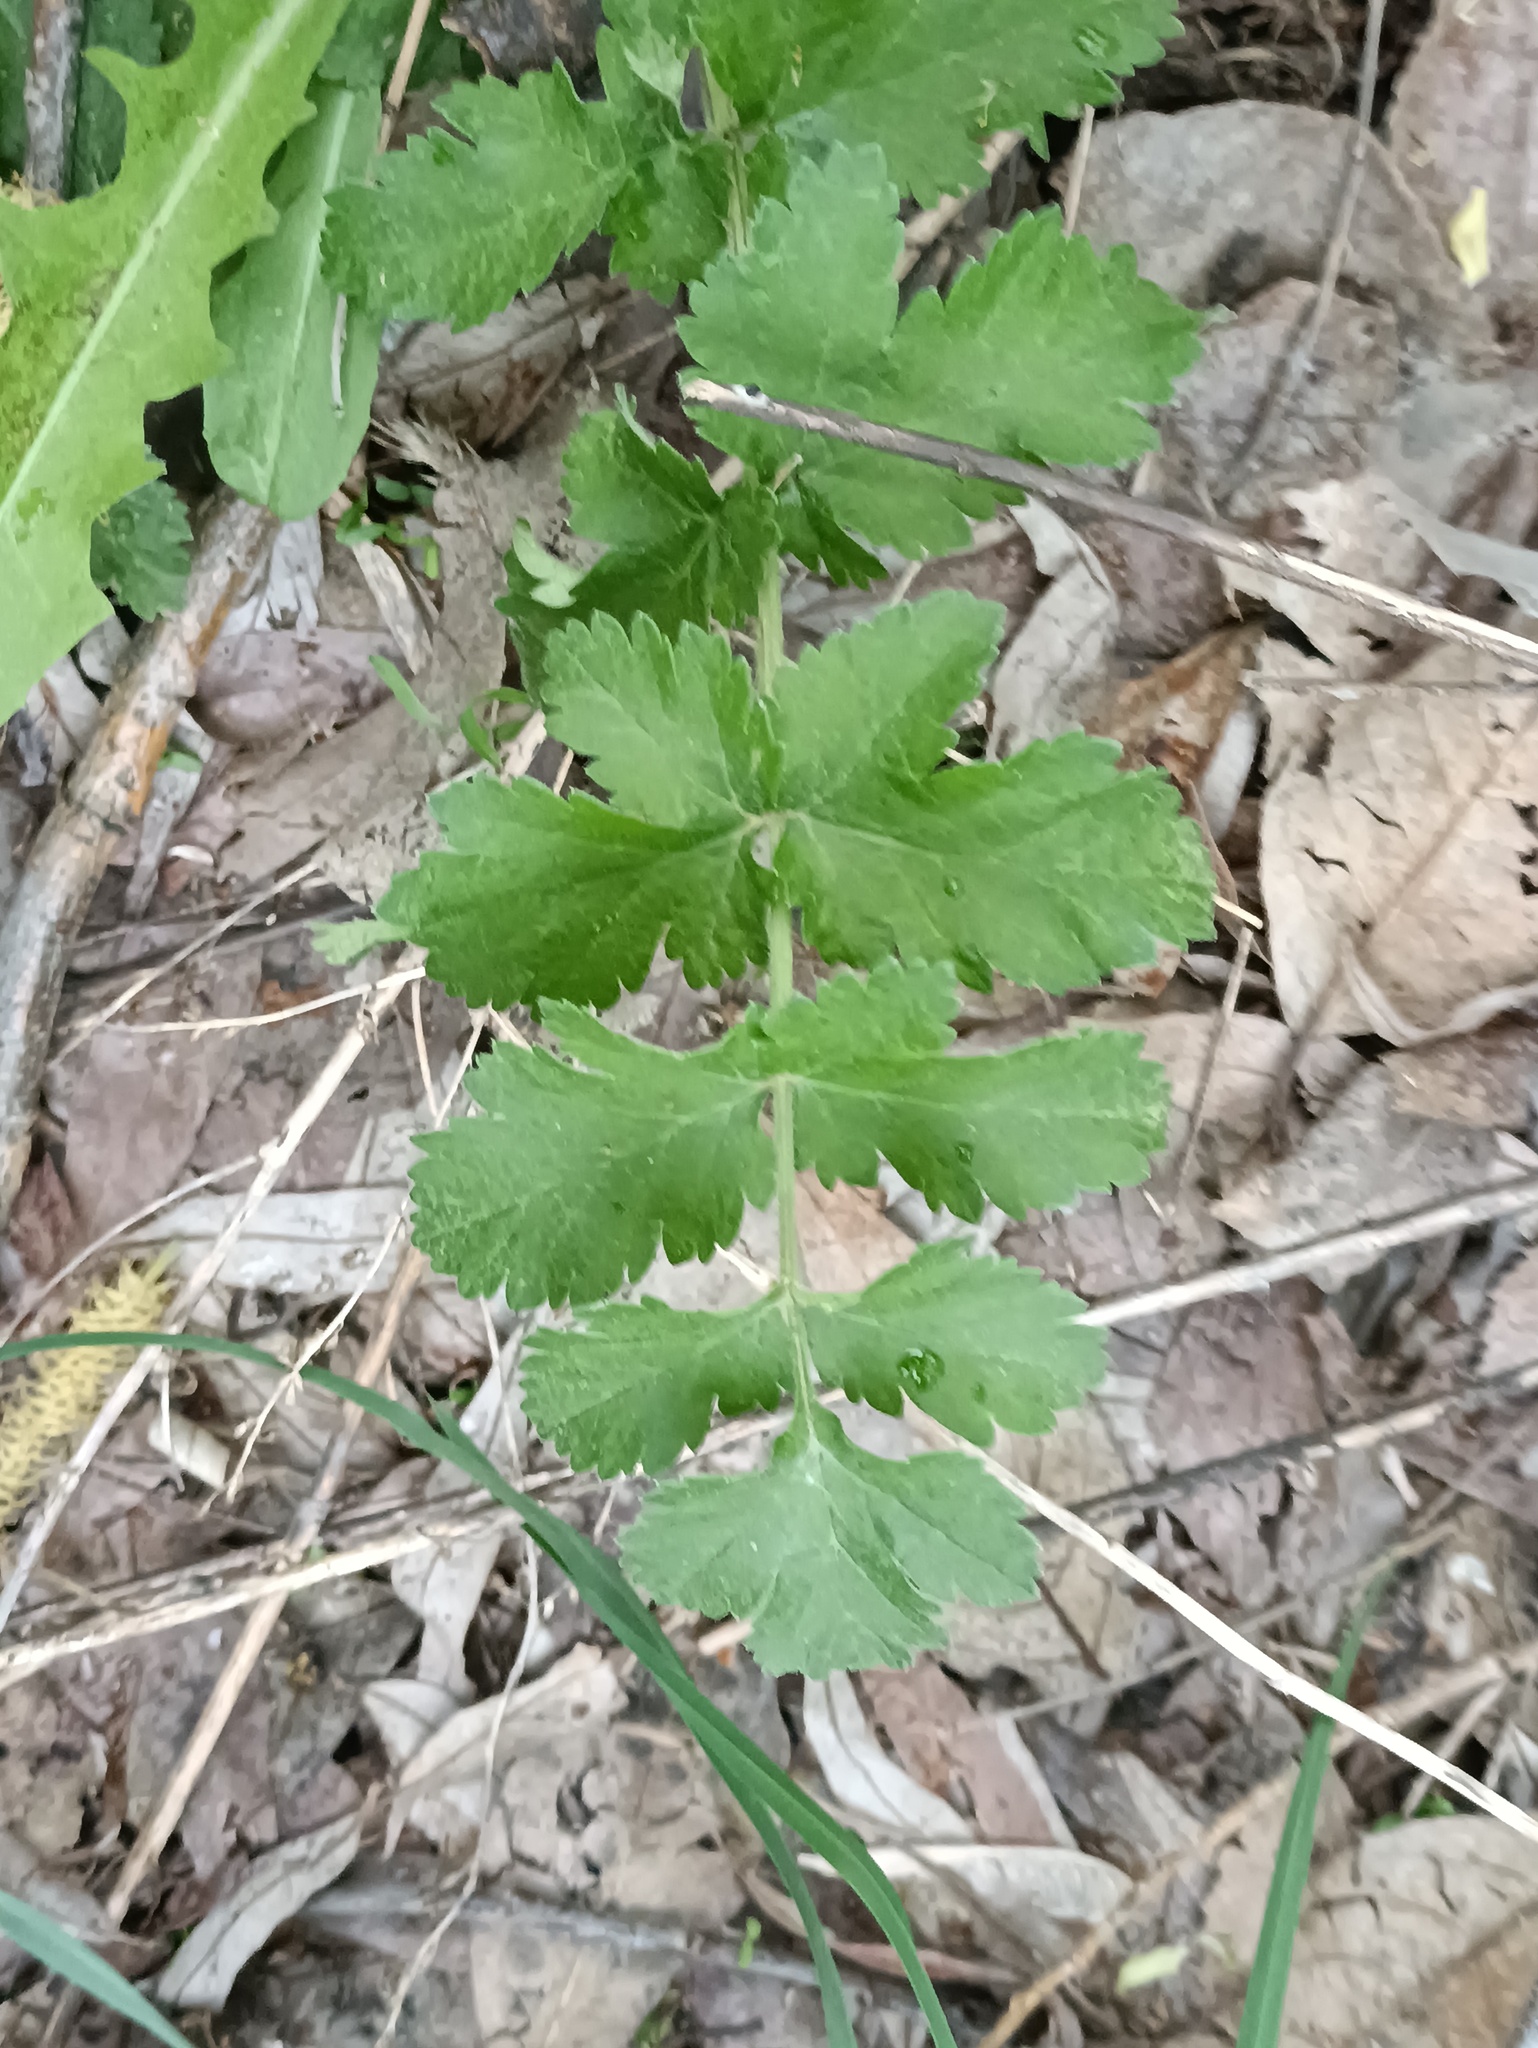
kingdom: Plantae
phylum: Tracheophyta
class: Magnoliopsida
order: Apiales
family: Apiaceae
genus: Pastinaca
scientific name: Pastinaca sativa
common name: Wild parsnip
